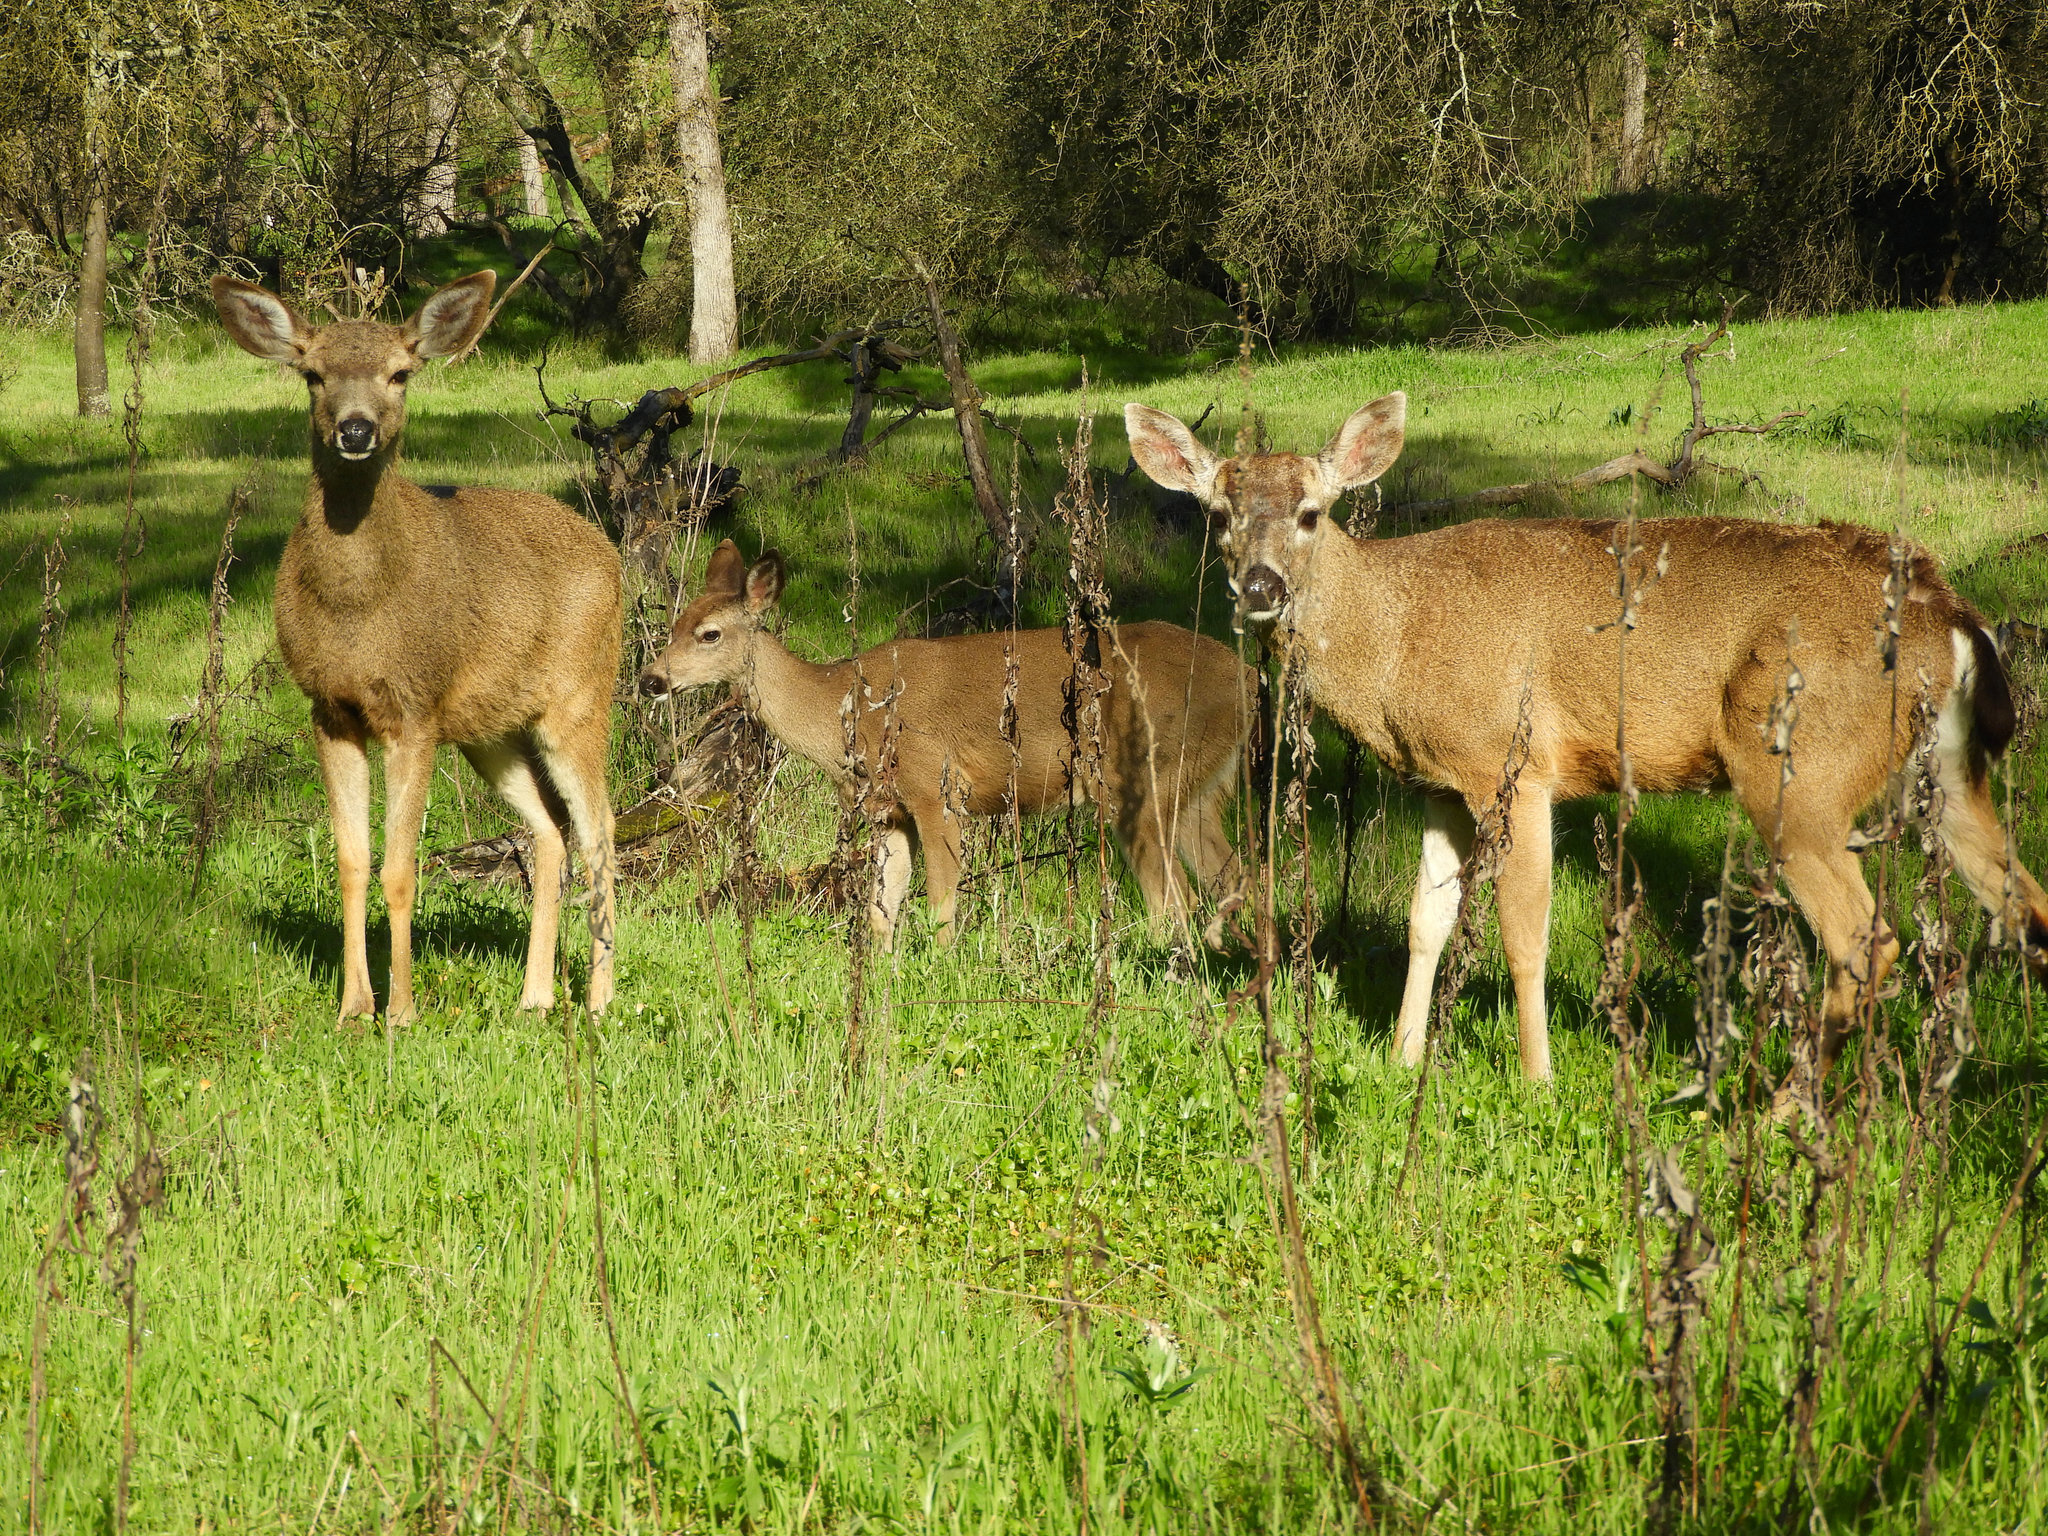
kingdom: Animalia
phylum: Chordata
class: Mammalia
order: Artiodactyla
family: Cervidae
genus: Odocoileus
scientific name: Odocoileus hemionus
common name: Mule deer
